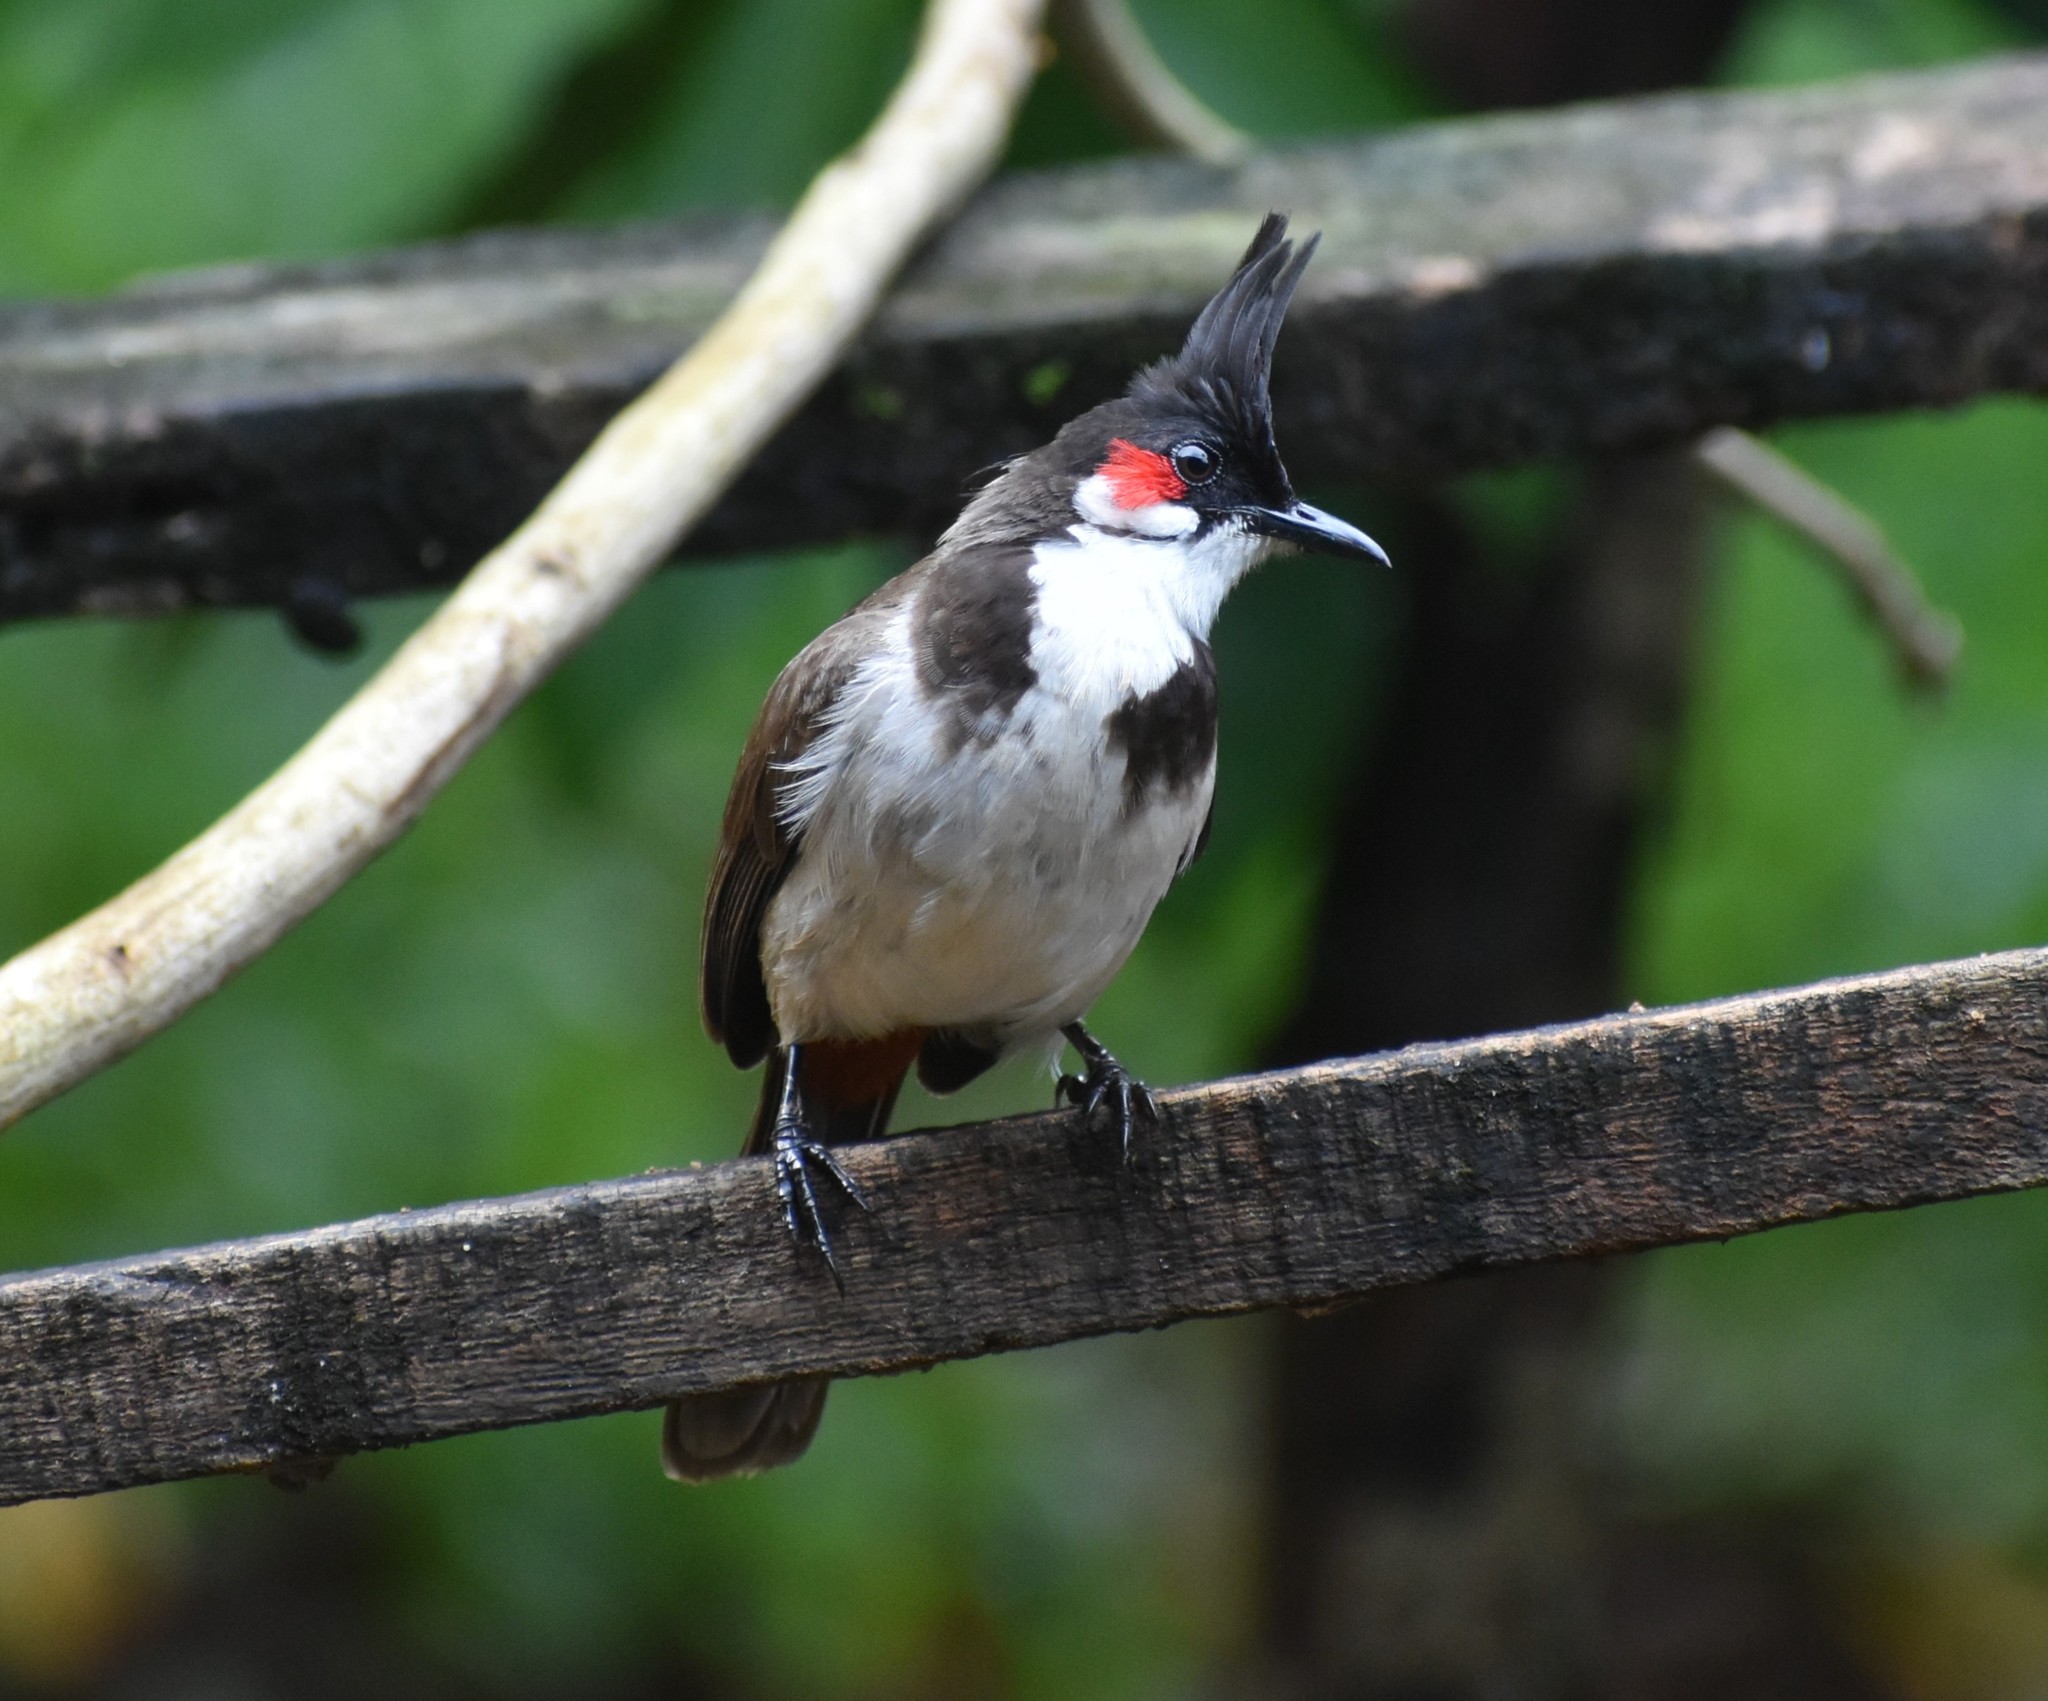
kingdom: Animalia
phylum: Chordata
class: Aves
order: Passeriformes
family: Pycnonotidae
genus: Pycnonotus
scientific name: Pycnonotus jocosus
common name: Red-whiskered bulbul
